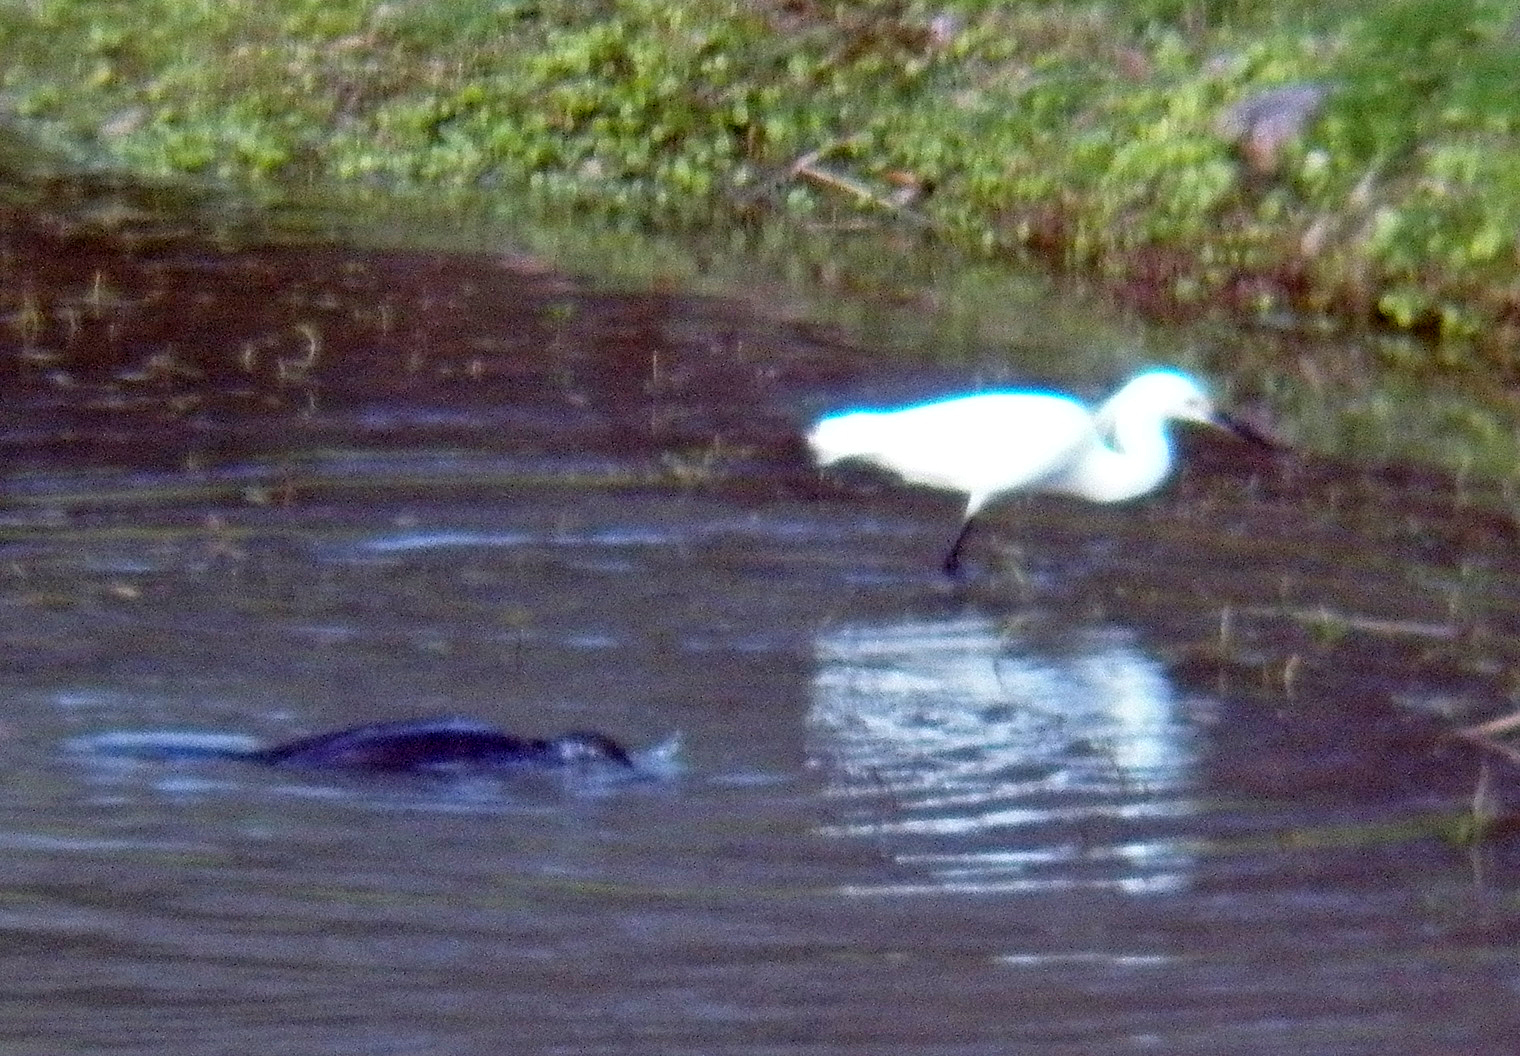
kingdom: Animalia
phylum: Chordata
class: Aves
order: Pelecaniformes
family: Ardeidae
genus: Egretta
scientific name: Egretta thula
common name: Snowy egret
